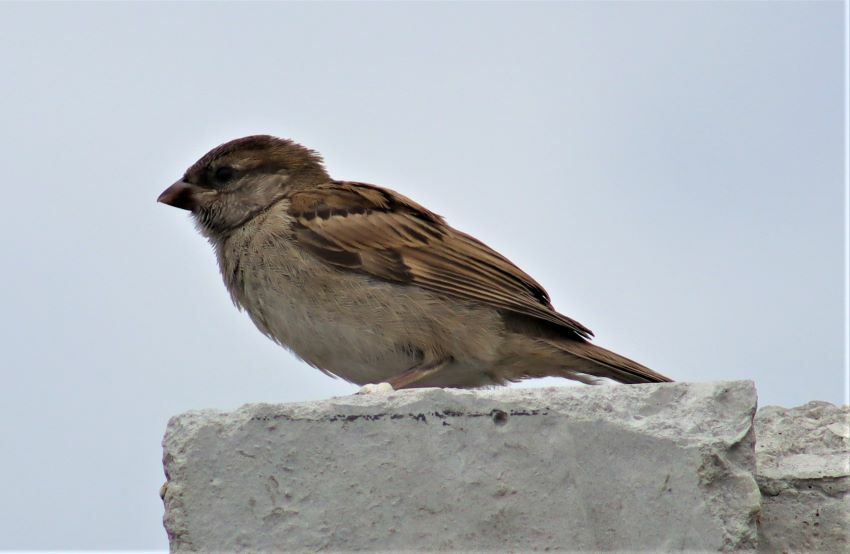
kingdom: Animalia
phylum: Chordata
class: Aves
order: Passeriformes
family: Passeridae
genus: Passer
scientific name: Passer domesticus
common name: House sparrow
